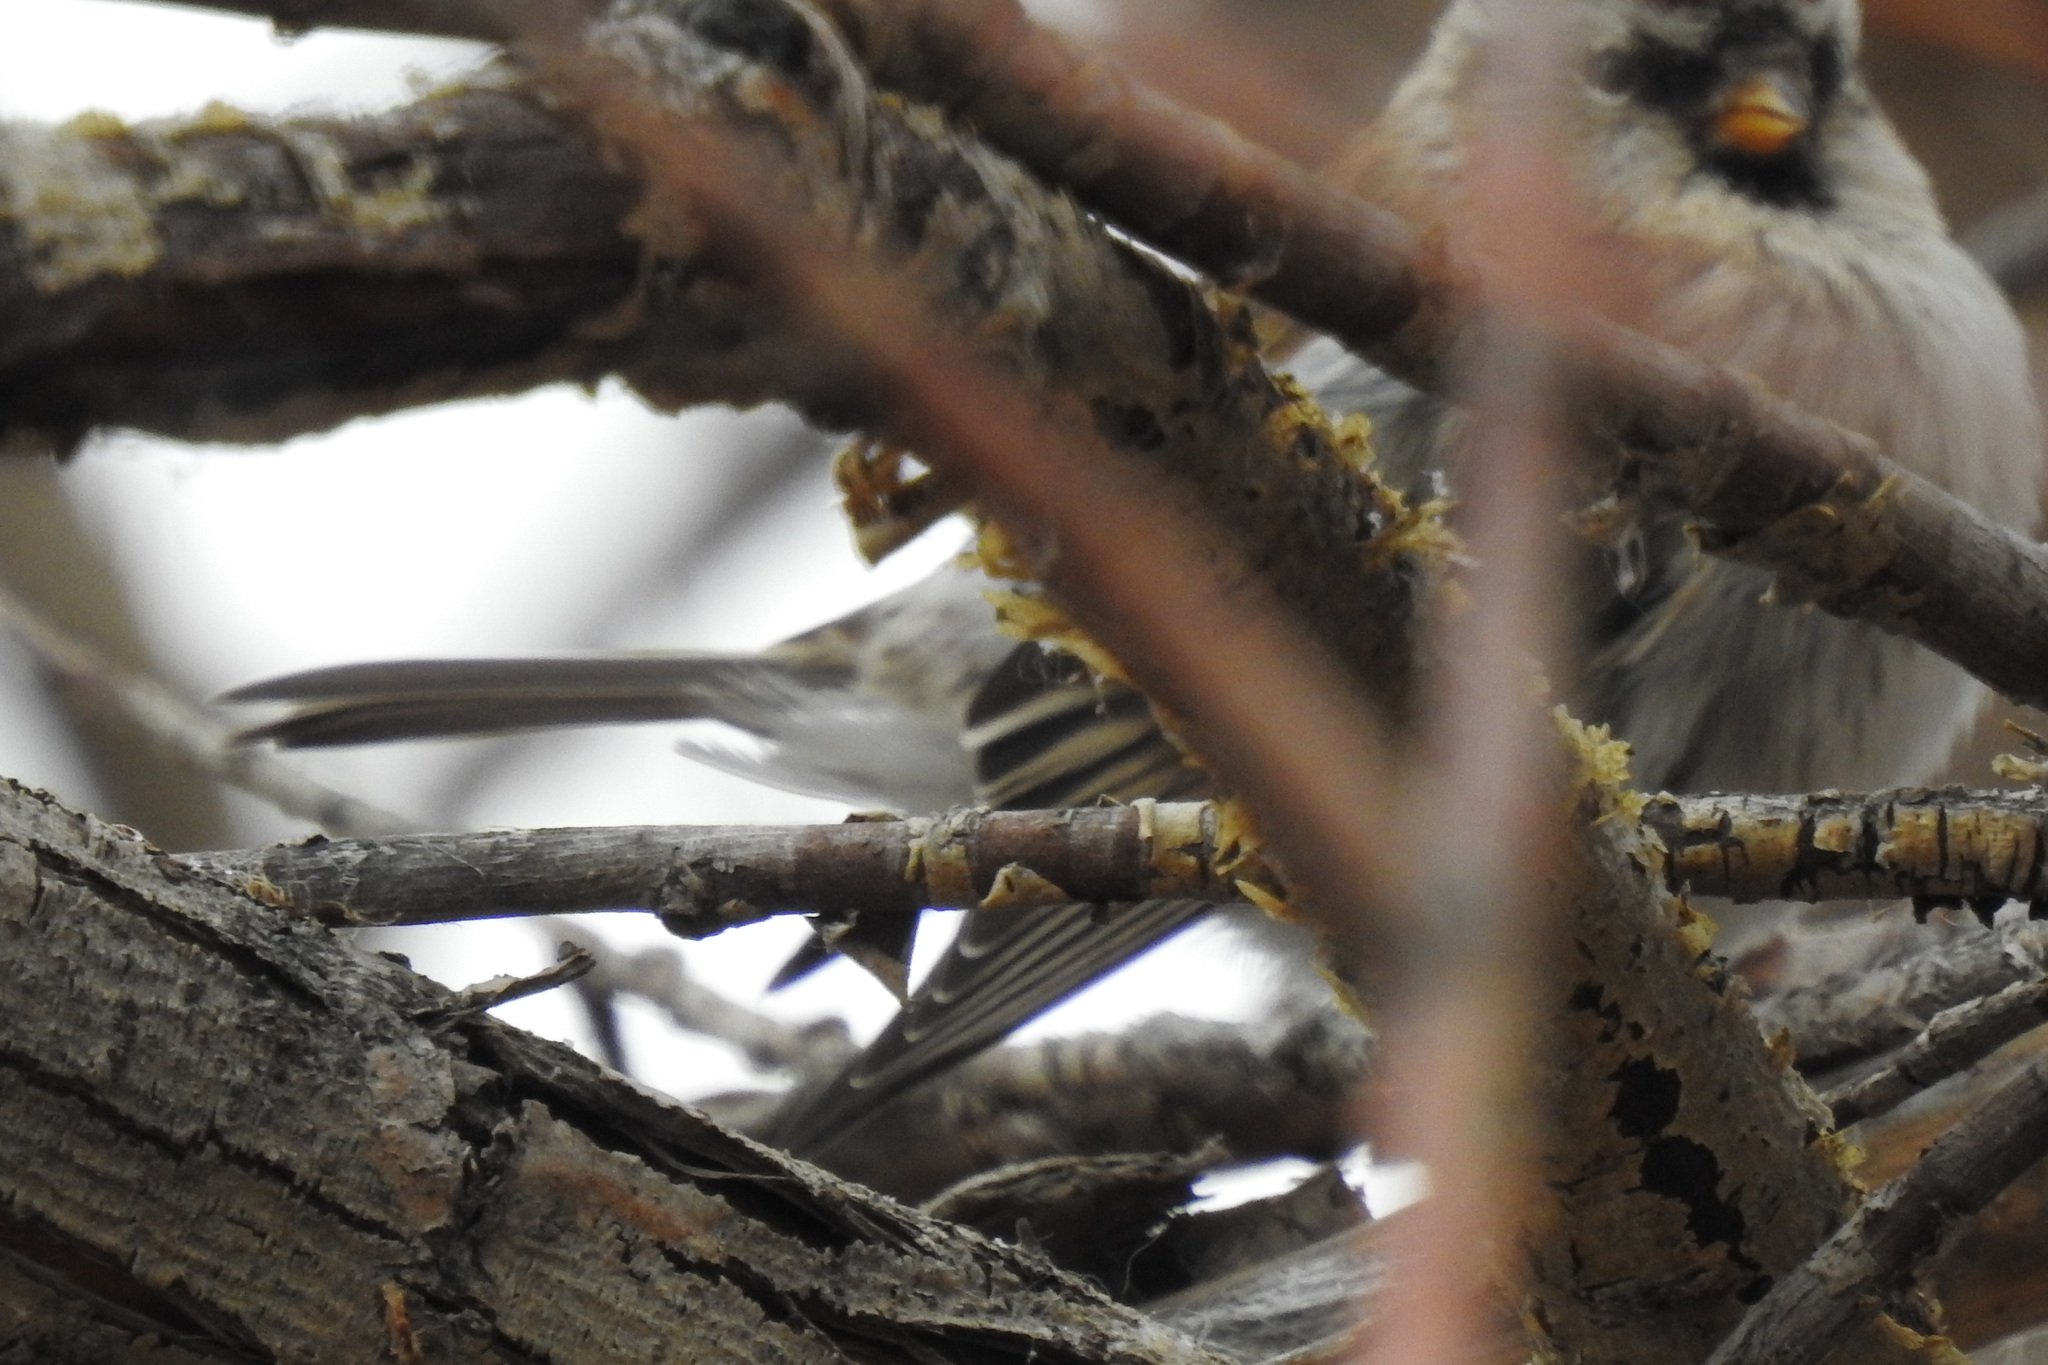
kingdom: Animalia
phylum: Chordata
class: Aves
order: Passeriformes
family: Fringillidae
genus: Acanthis
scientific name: Acanthis flammea
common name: Common redpoll
